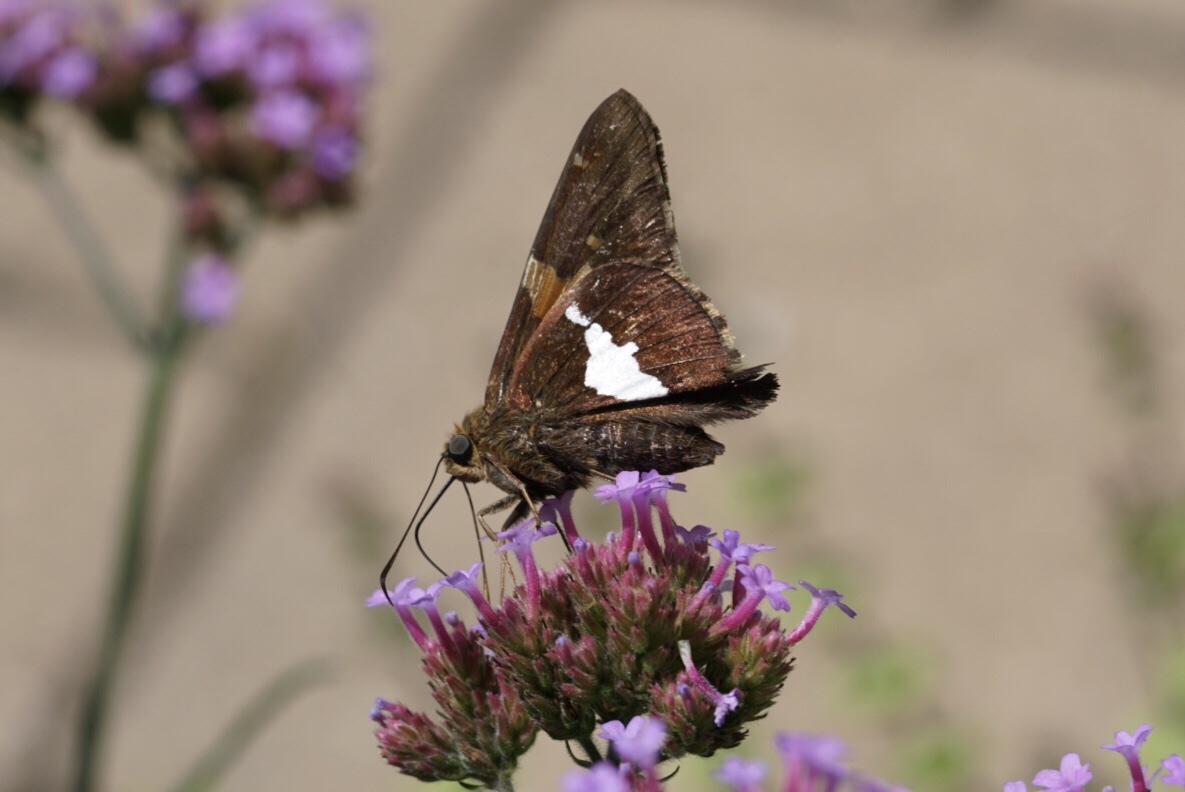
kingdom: Animalia
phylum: Arthropoda
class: Insecta
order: Lepidoptera
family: Hesperiidae
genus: Epargyreus
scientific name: Epargyreus clarus
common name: Silver-spotted skipper
